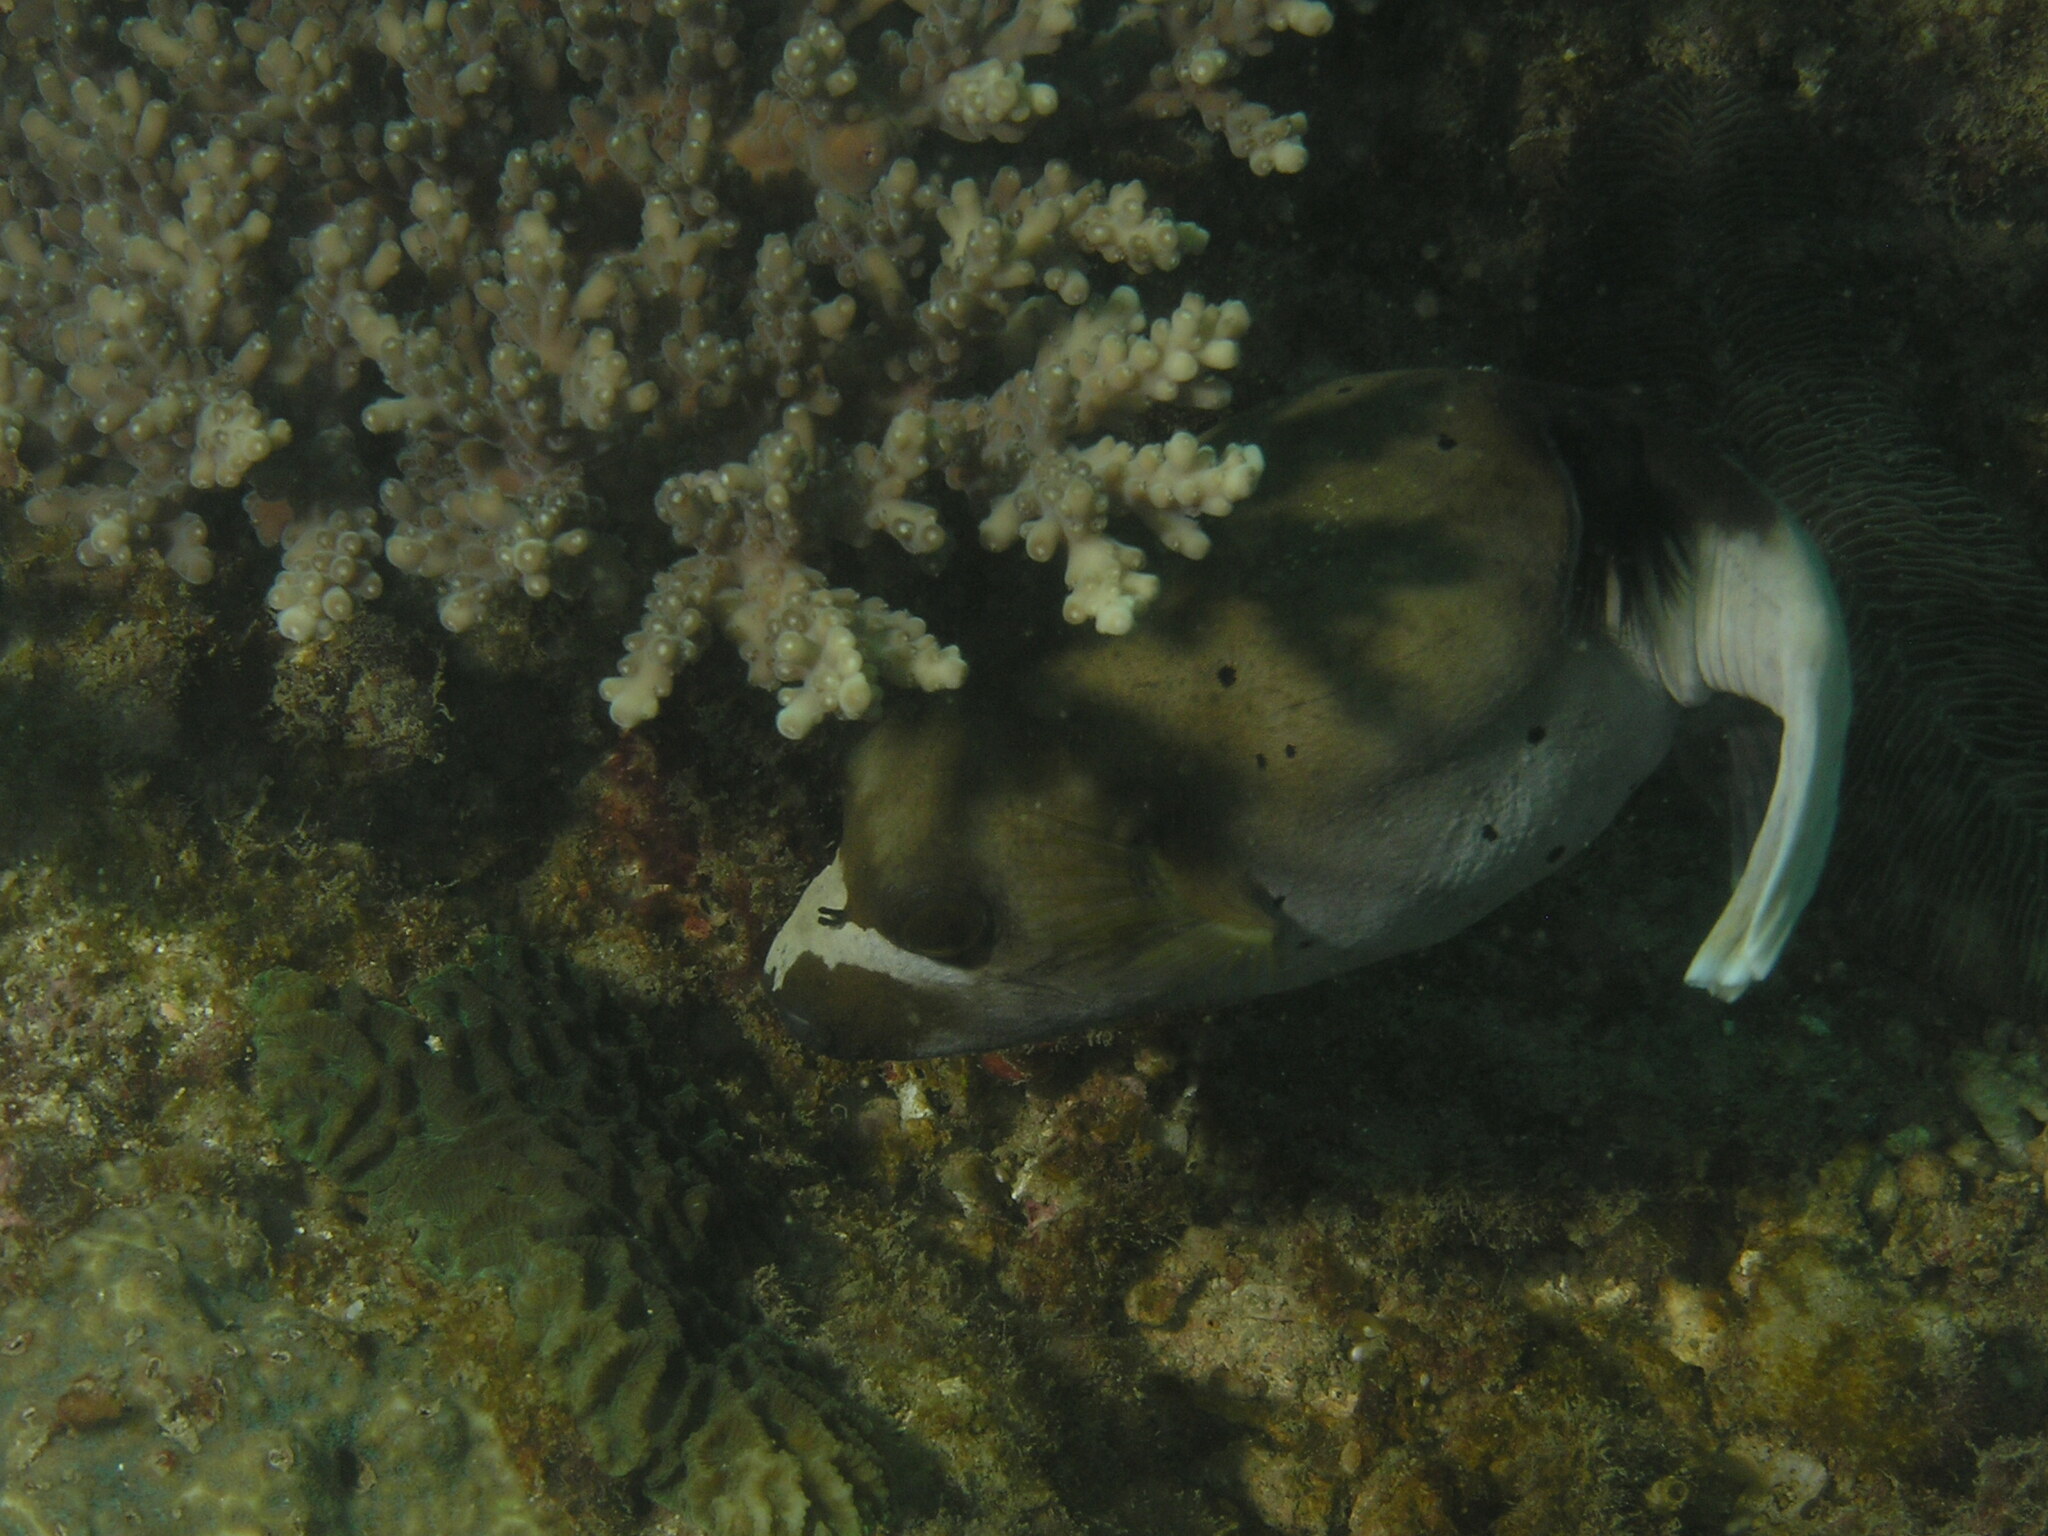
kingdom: Animalia
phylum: Chordata
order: Tetraodontiformes
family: Tetraodontidae
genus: Arothron
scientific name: Arothron nigropunctatus
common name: Black spotted blow fish
